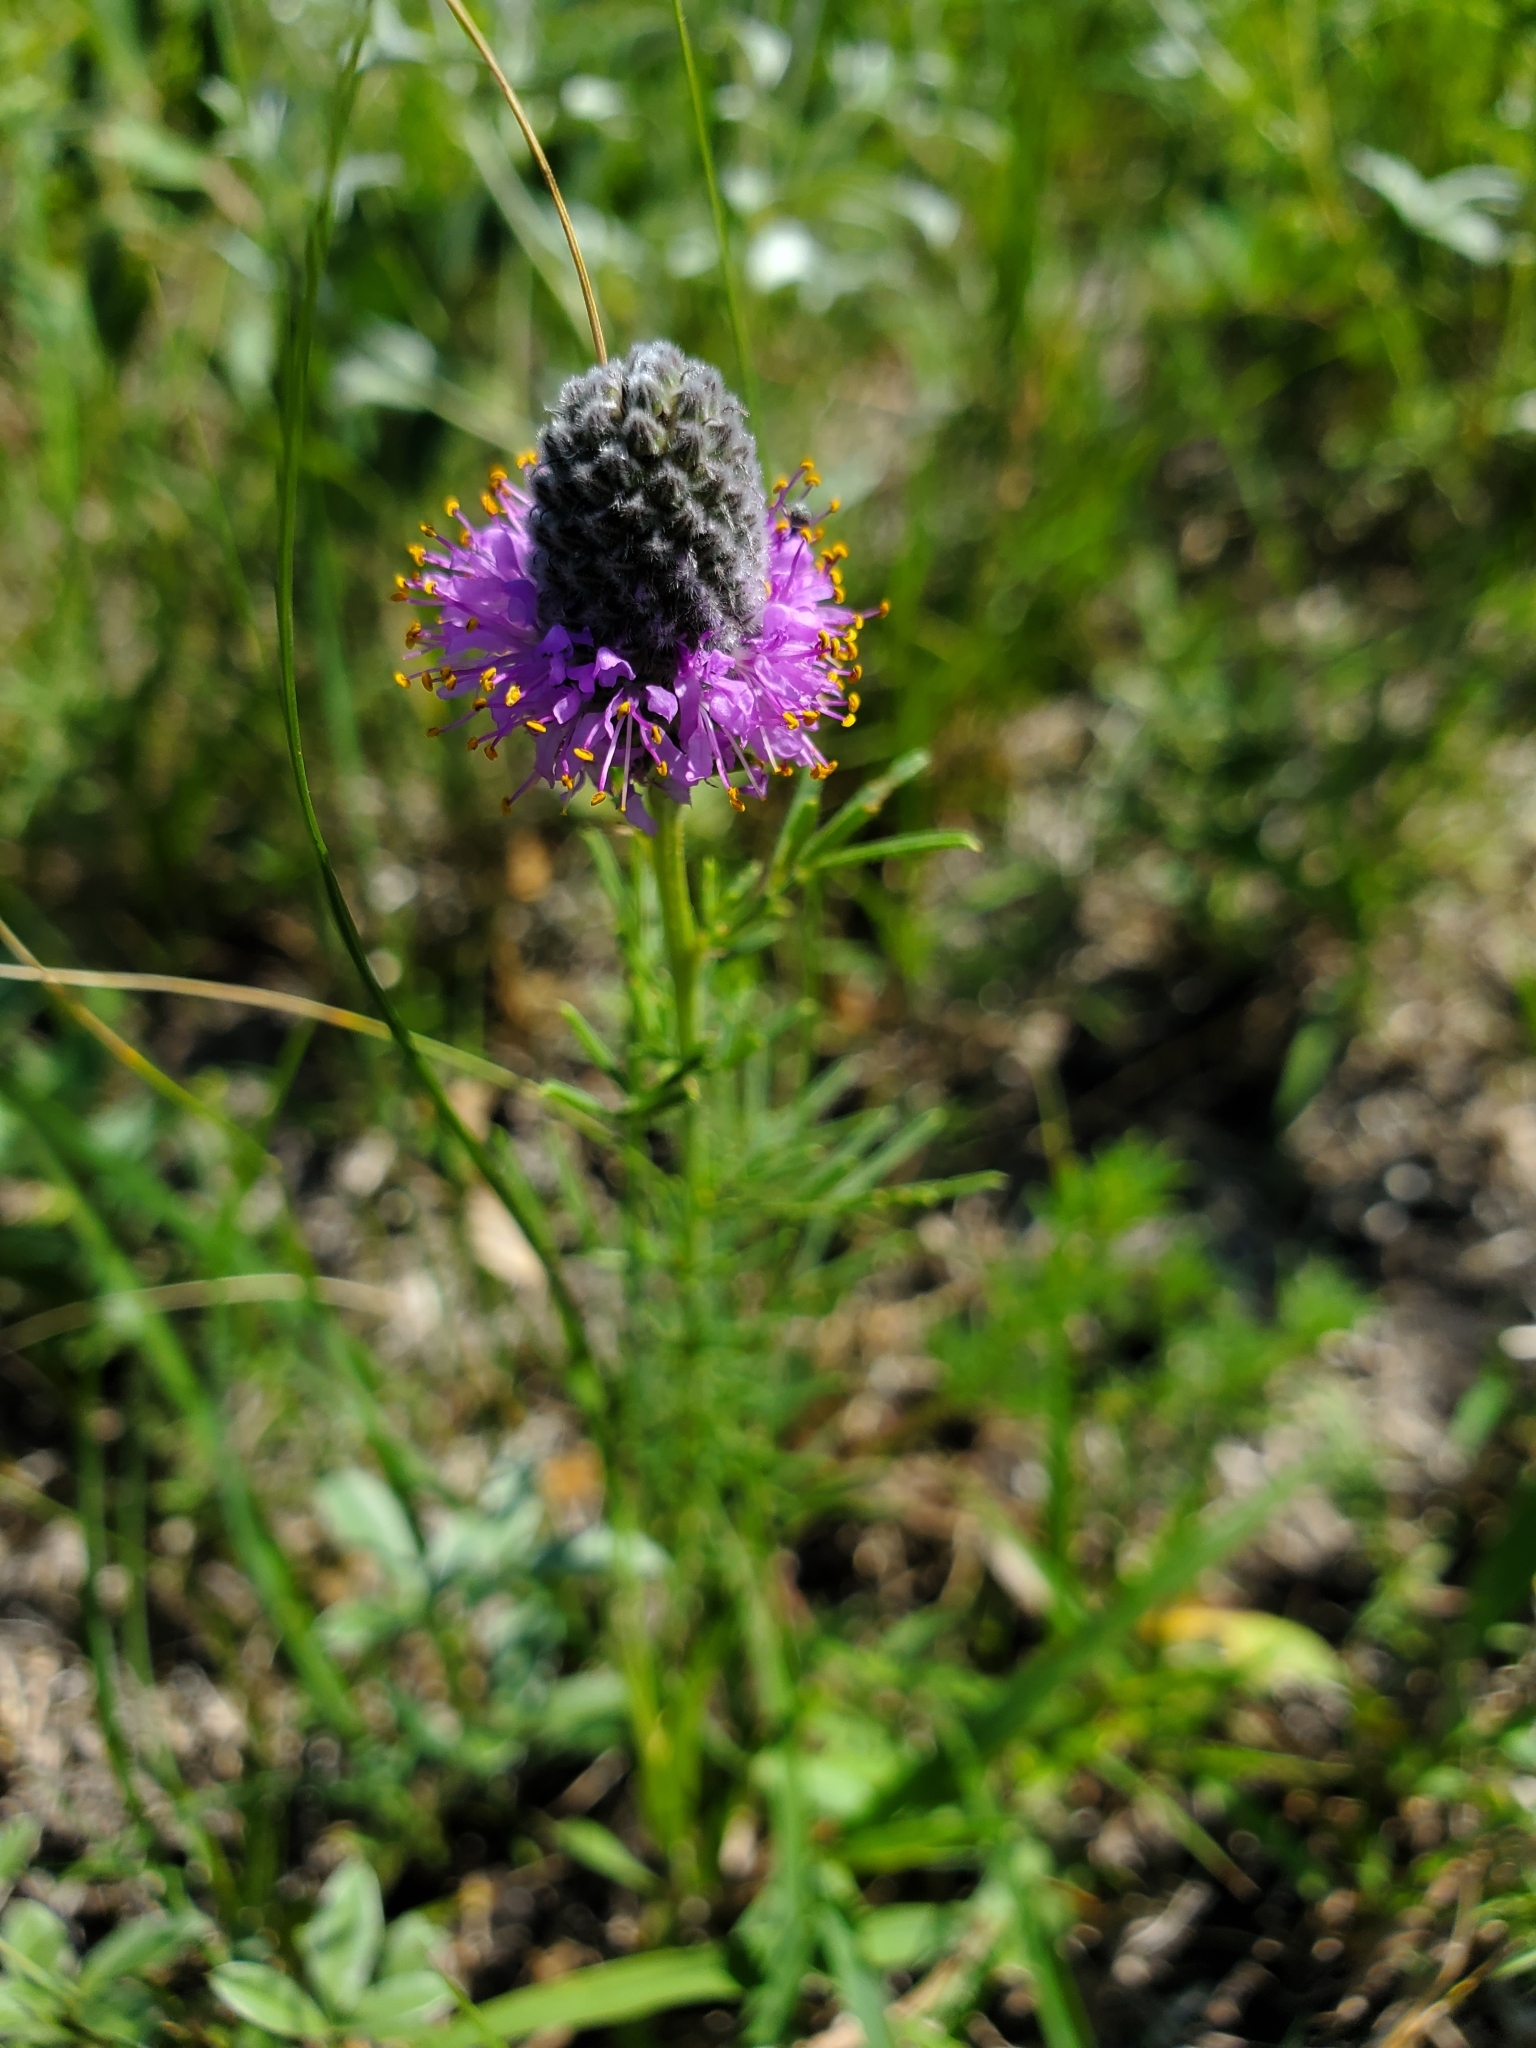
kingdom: Plantae
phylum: Tracheophyta
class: Magnoliopsida
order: Fabales
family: Fabaceae
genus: Dalea
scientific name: Dalea purpurea
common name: Purple prairie-clover
